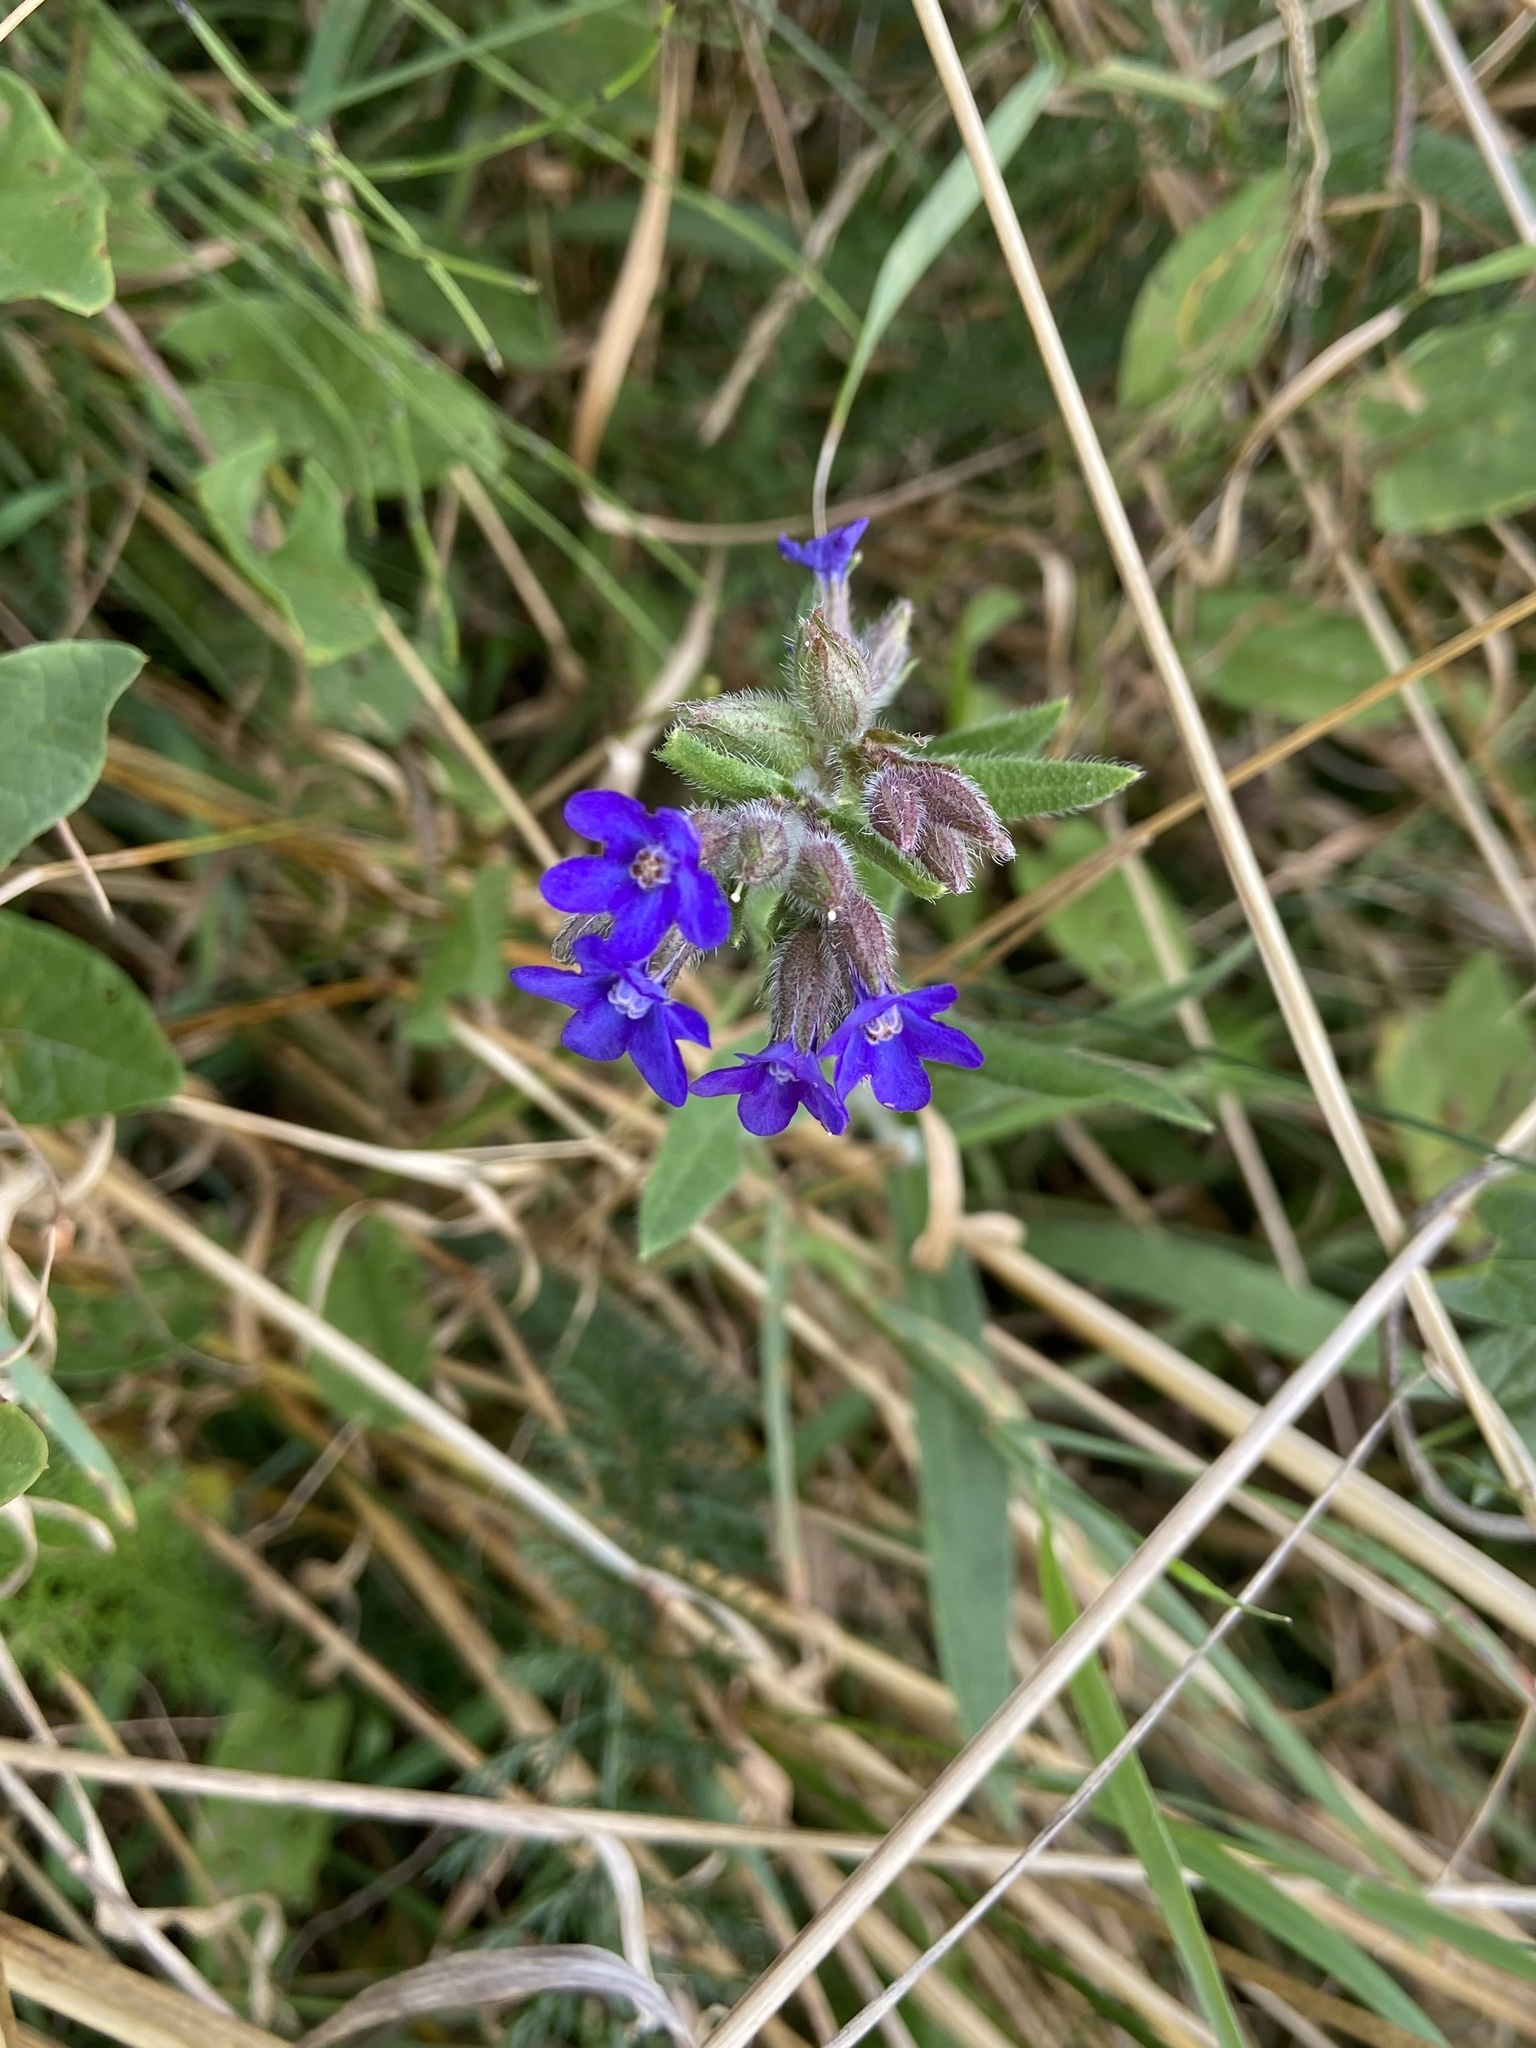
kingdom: Plantae
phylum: Tracheophyta
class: Magnoliopsida
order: Boraginales
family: Boraginaceae
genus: Anchusa
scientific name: Anchusa officinalis
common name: Alkanet
